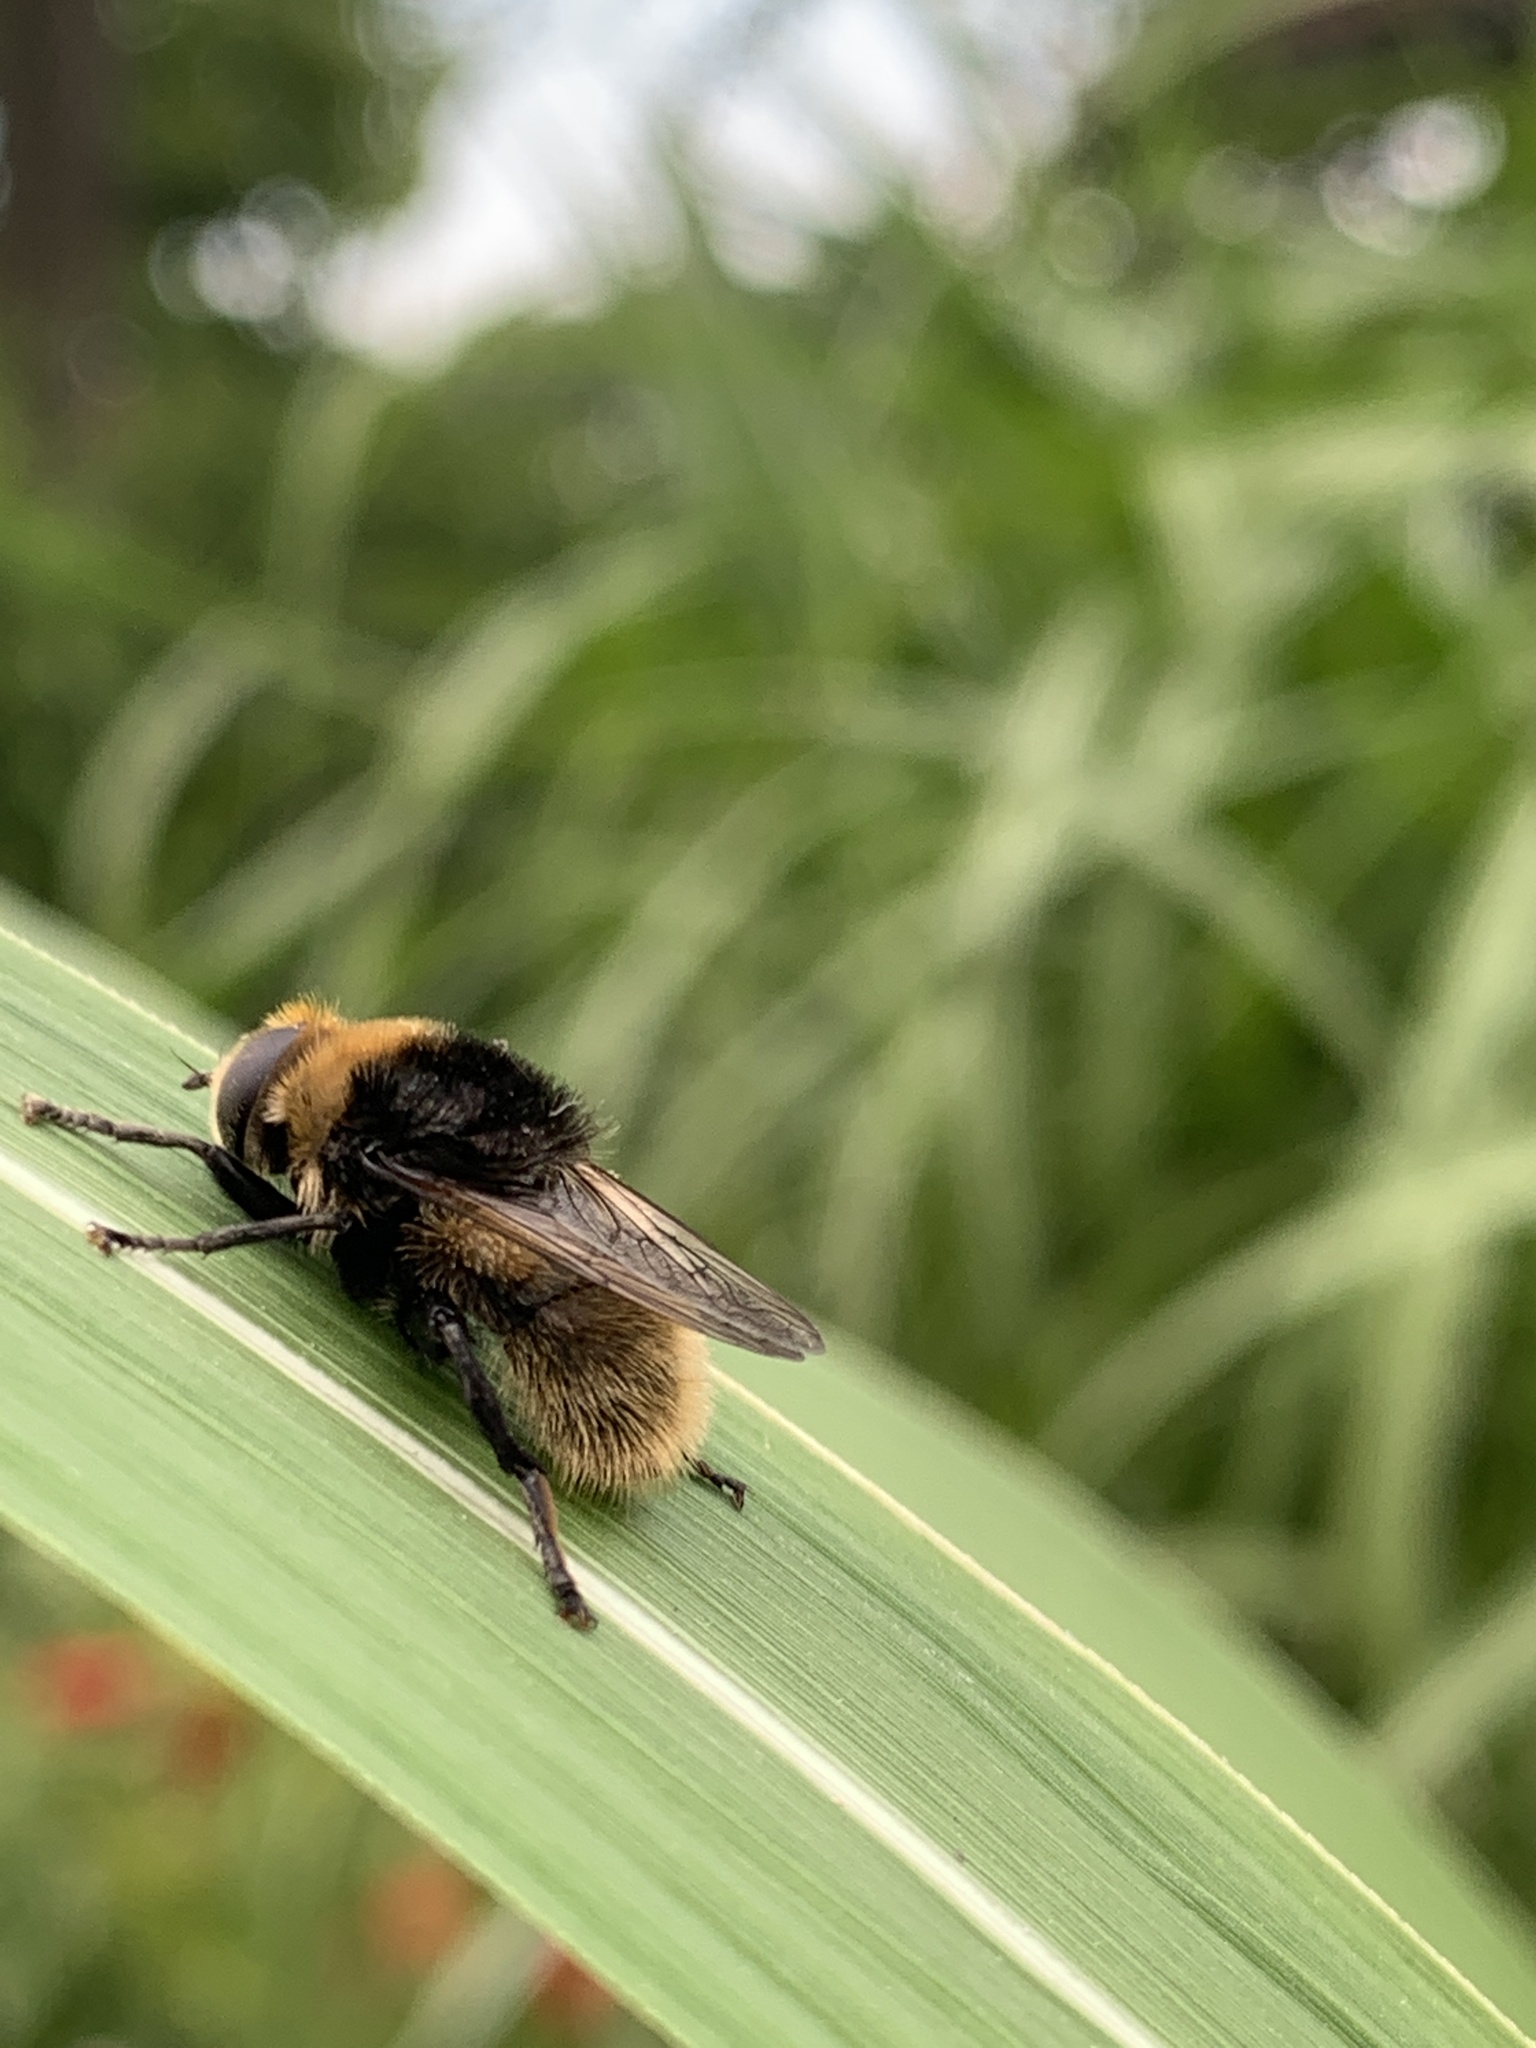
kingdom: Animalia
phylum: Arthropoda
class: Insecta
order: Diptera
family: Syrphidae
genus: Merodon
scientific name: Merodon equestris
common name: Greater bulb-fly
